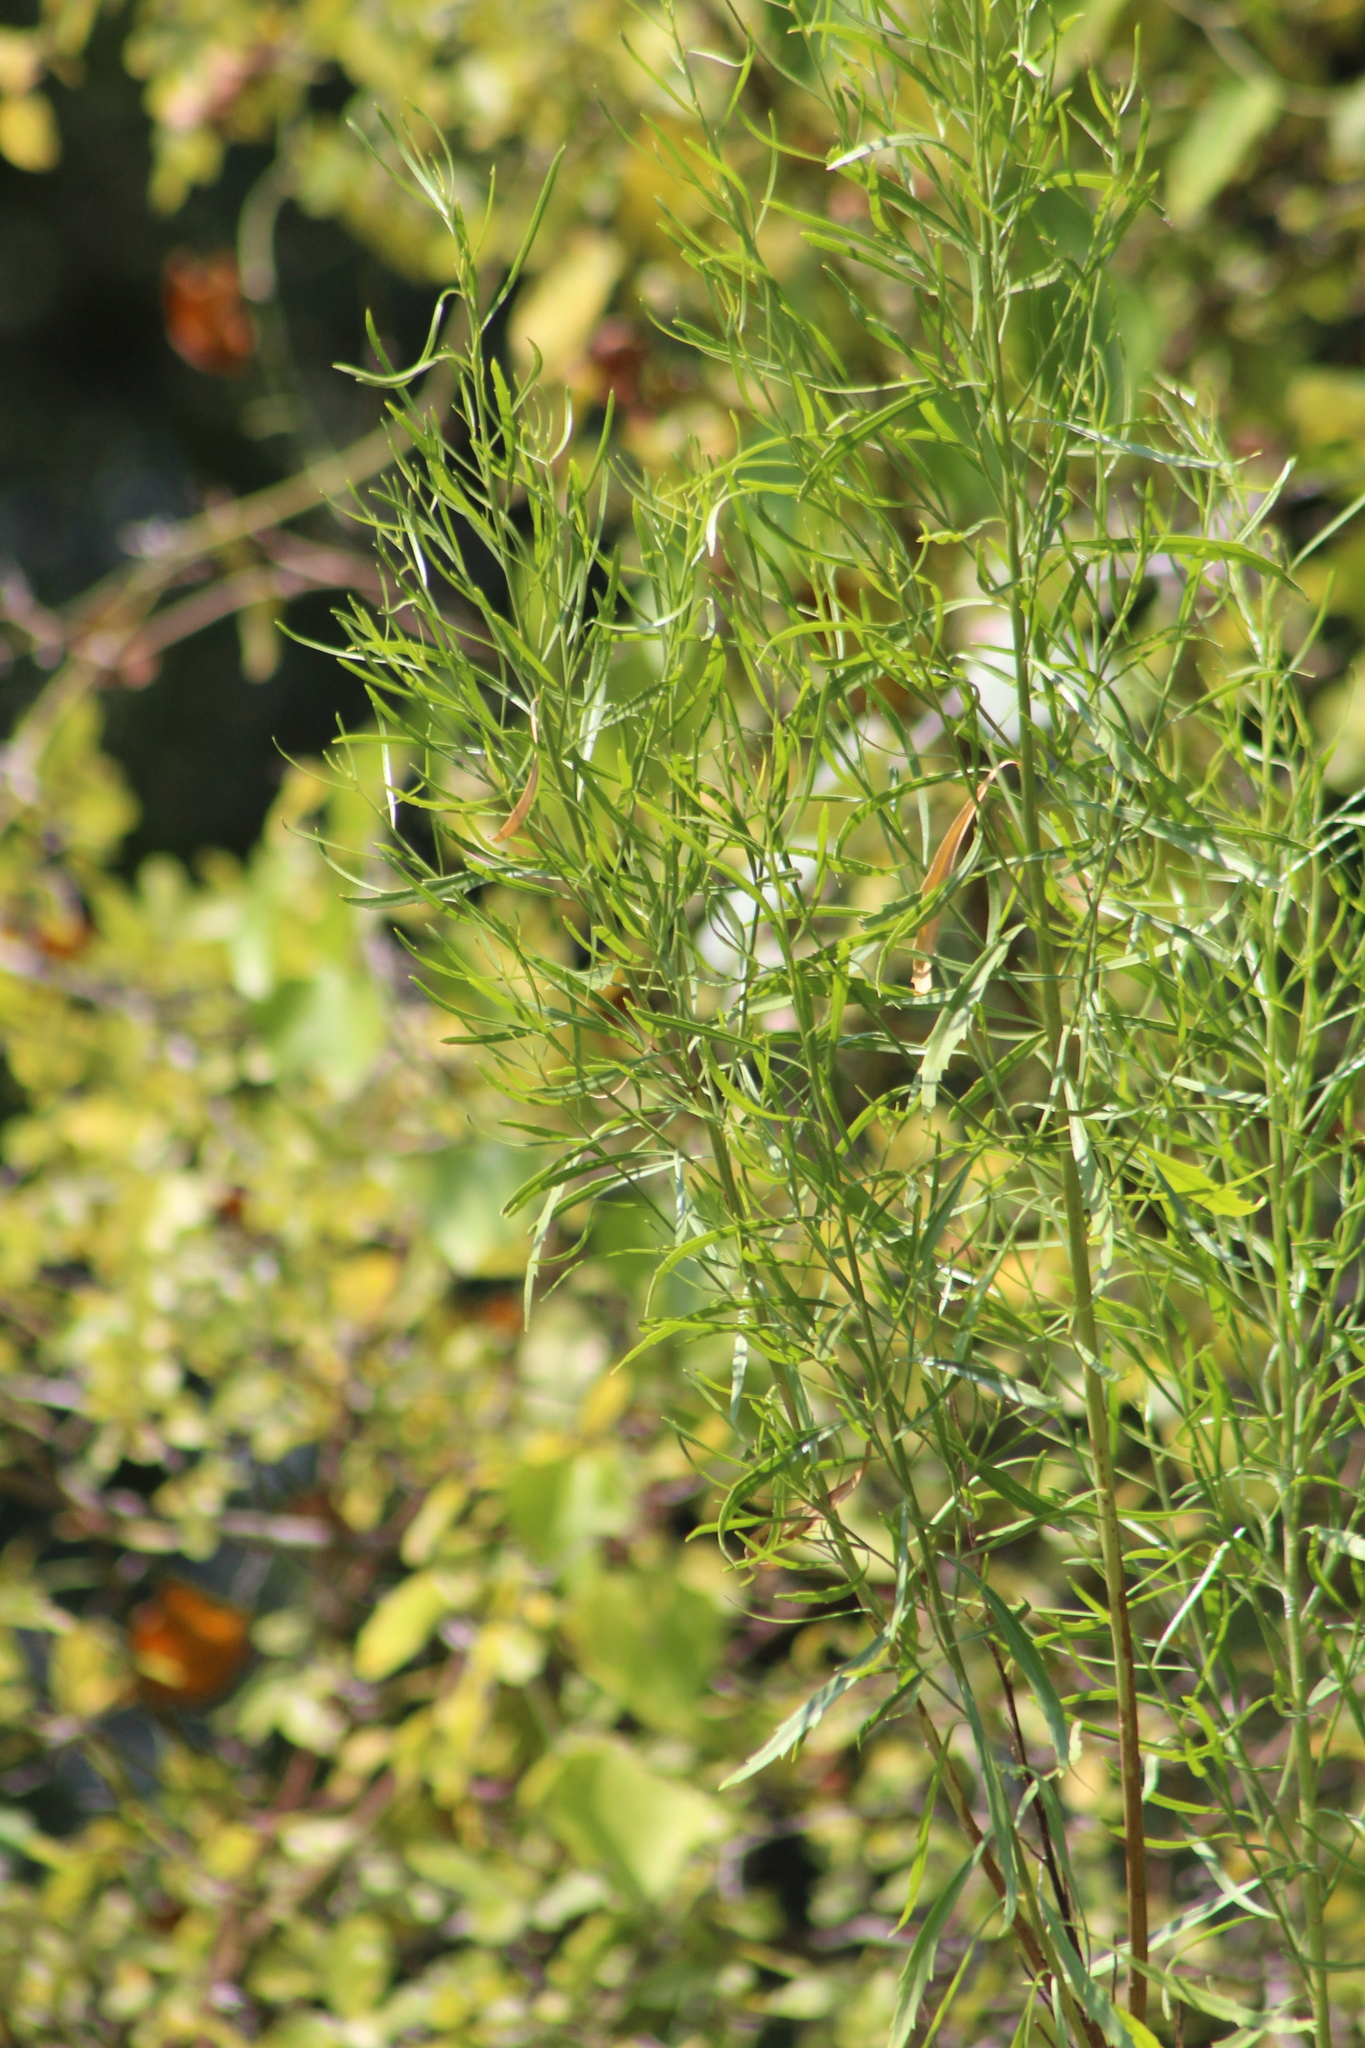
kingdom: Plantae
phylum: Tracheophyta
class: Magnoliopsida
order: Asterales
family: Asteraceae
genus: Baccharis
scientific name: Baccharis neglecta
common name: Roosevelt-weed
